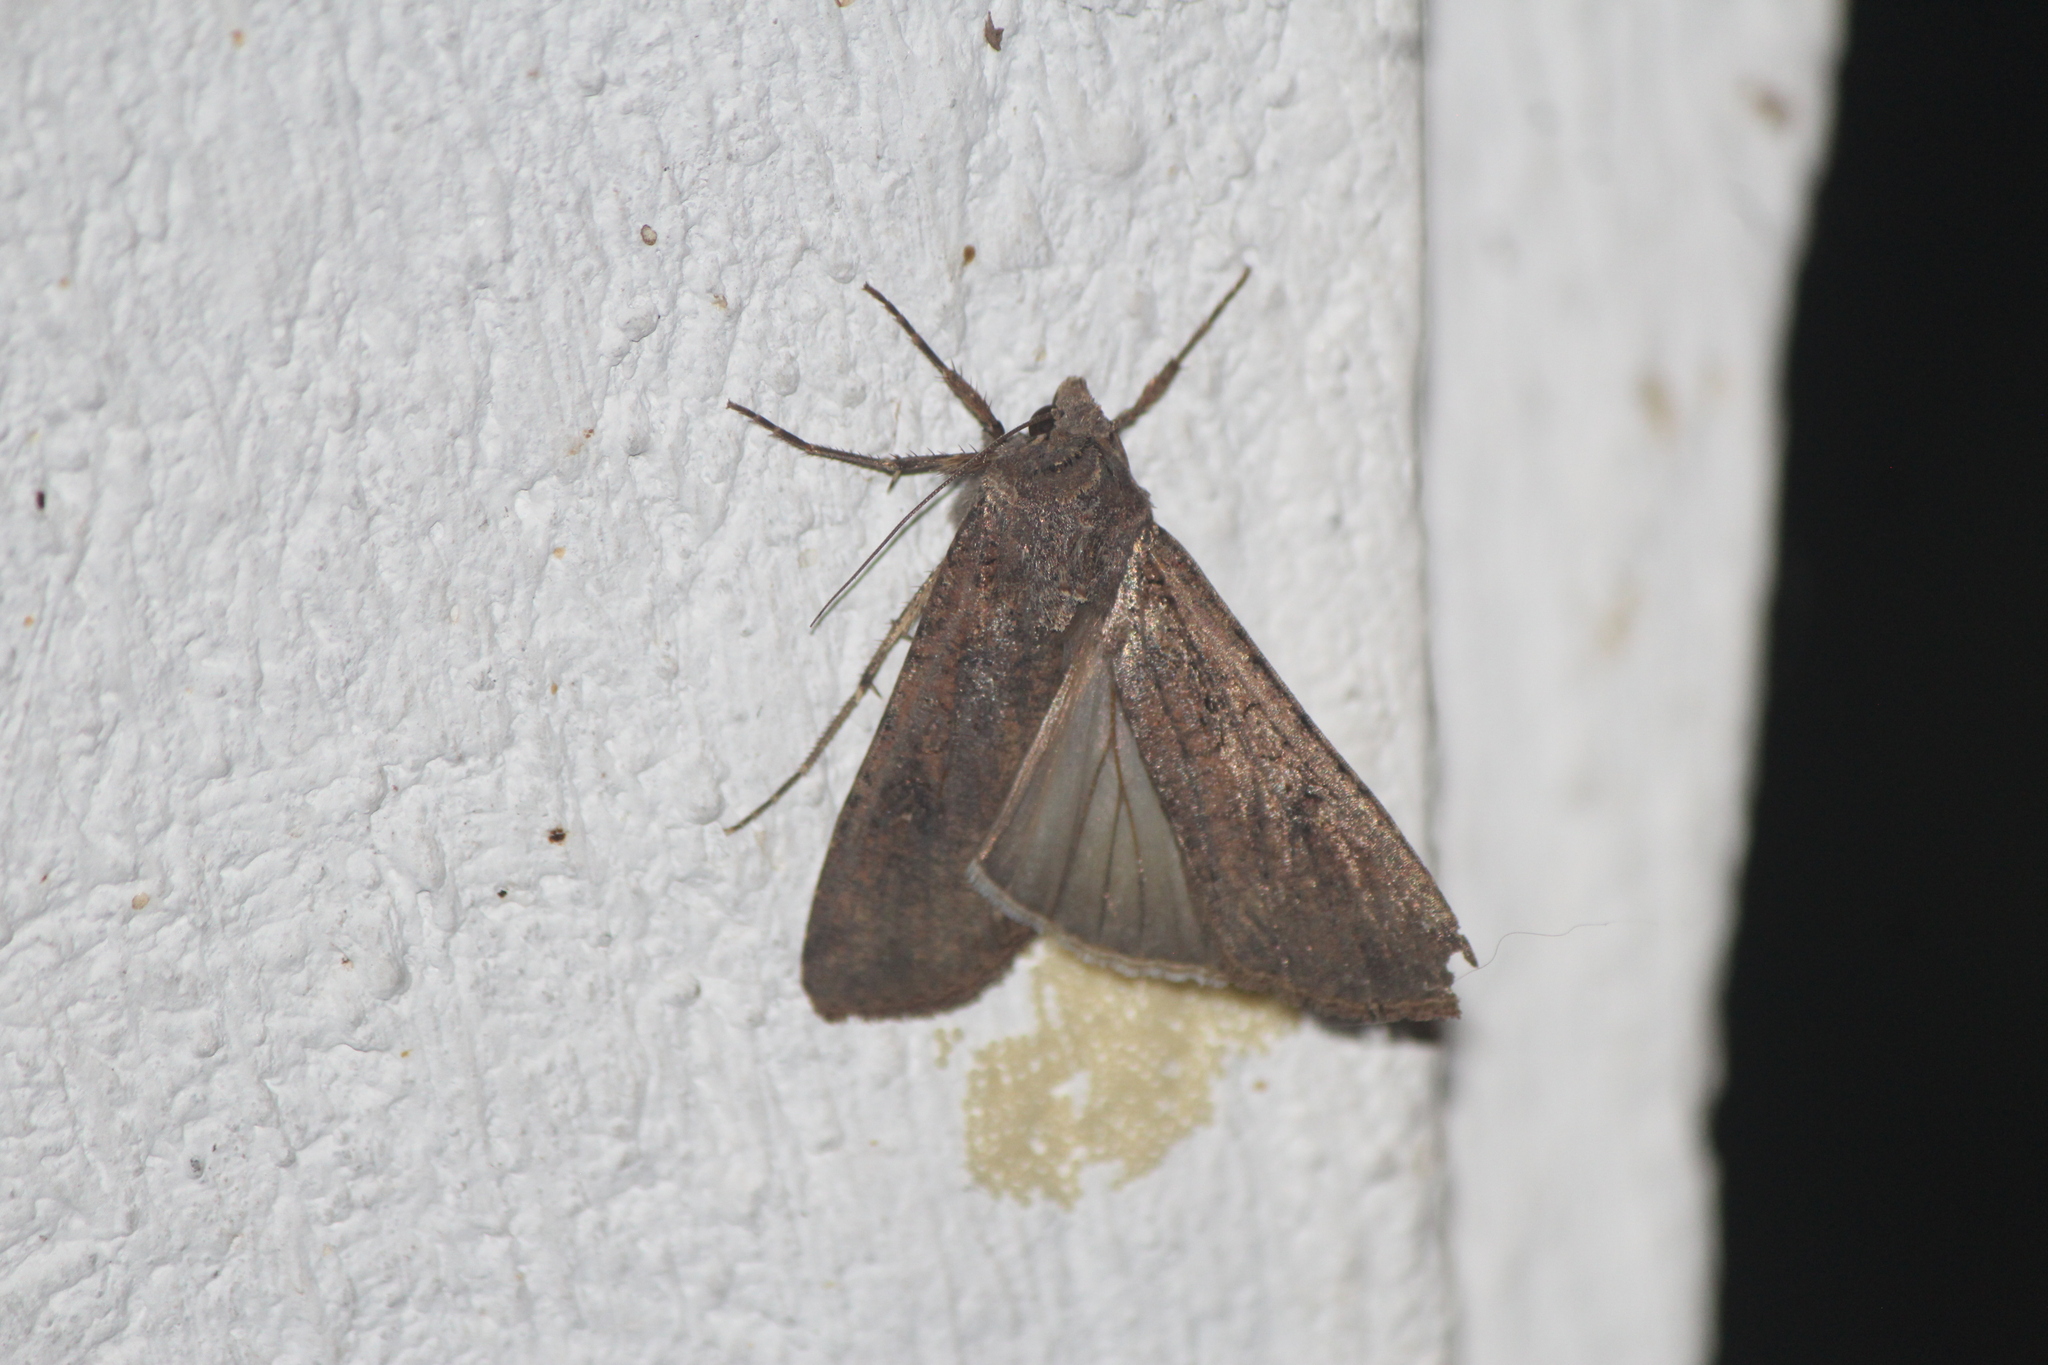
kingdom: Animalia
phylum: Arthropoda
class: Insecta
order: Lepidoptera
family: Noctuidae
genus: Peridroma
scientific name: Peridroma saucia
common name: Pearly underwing
